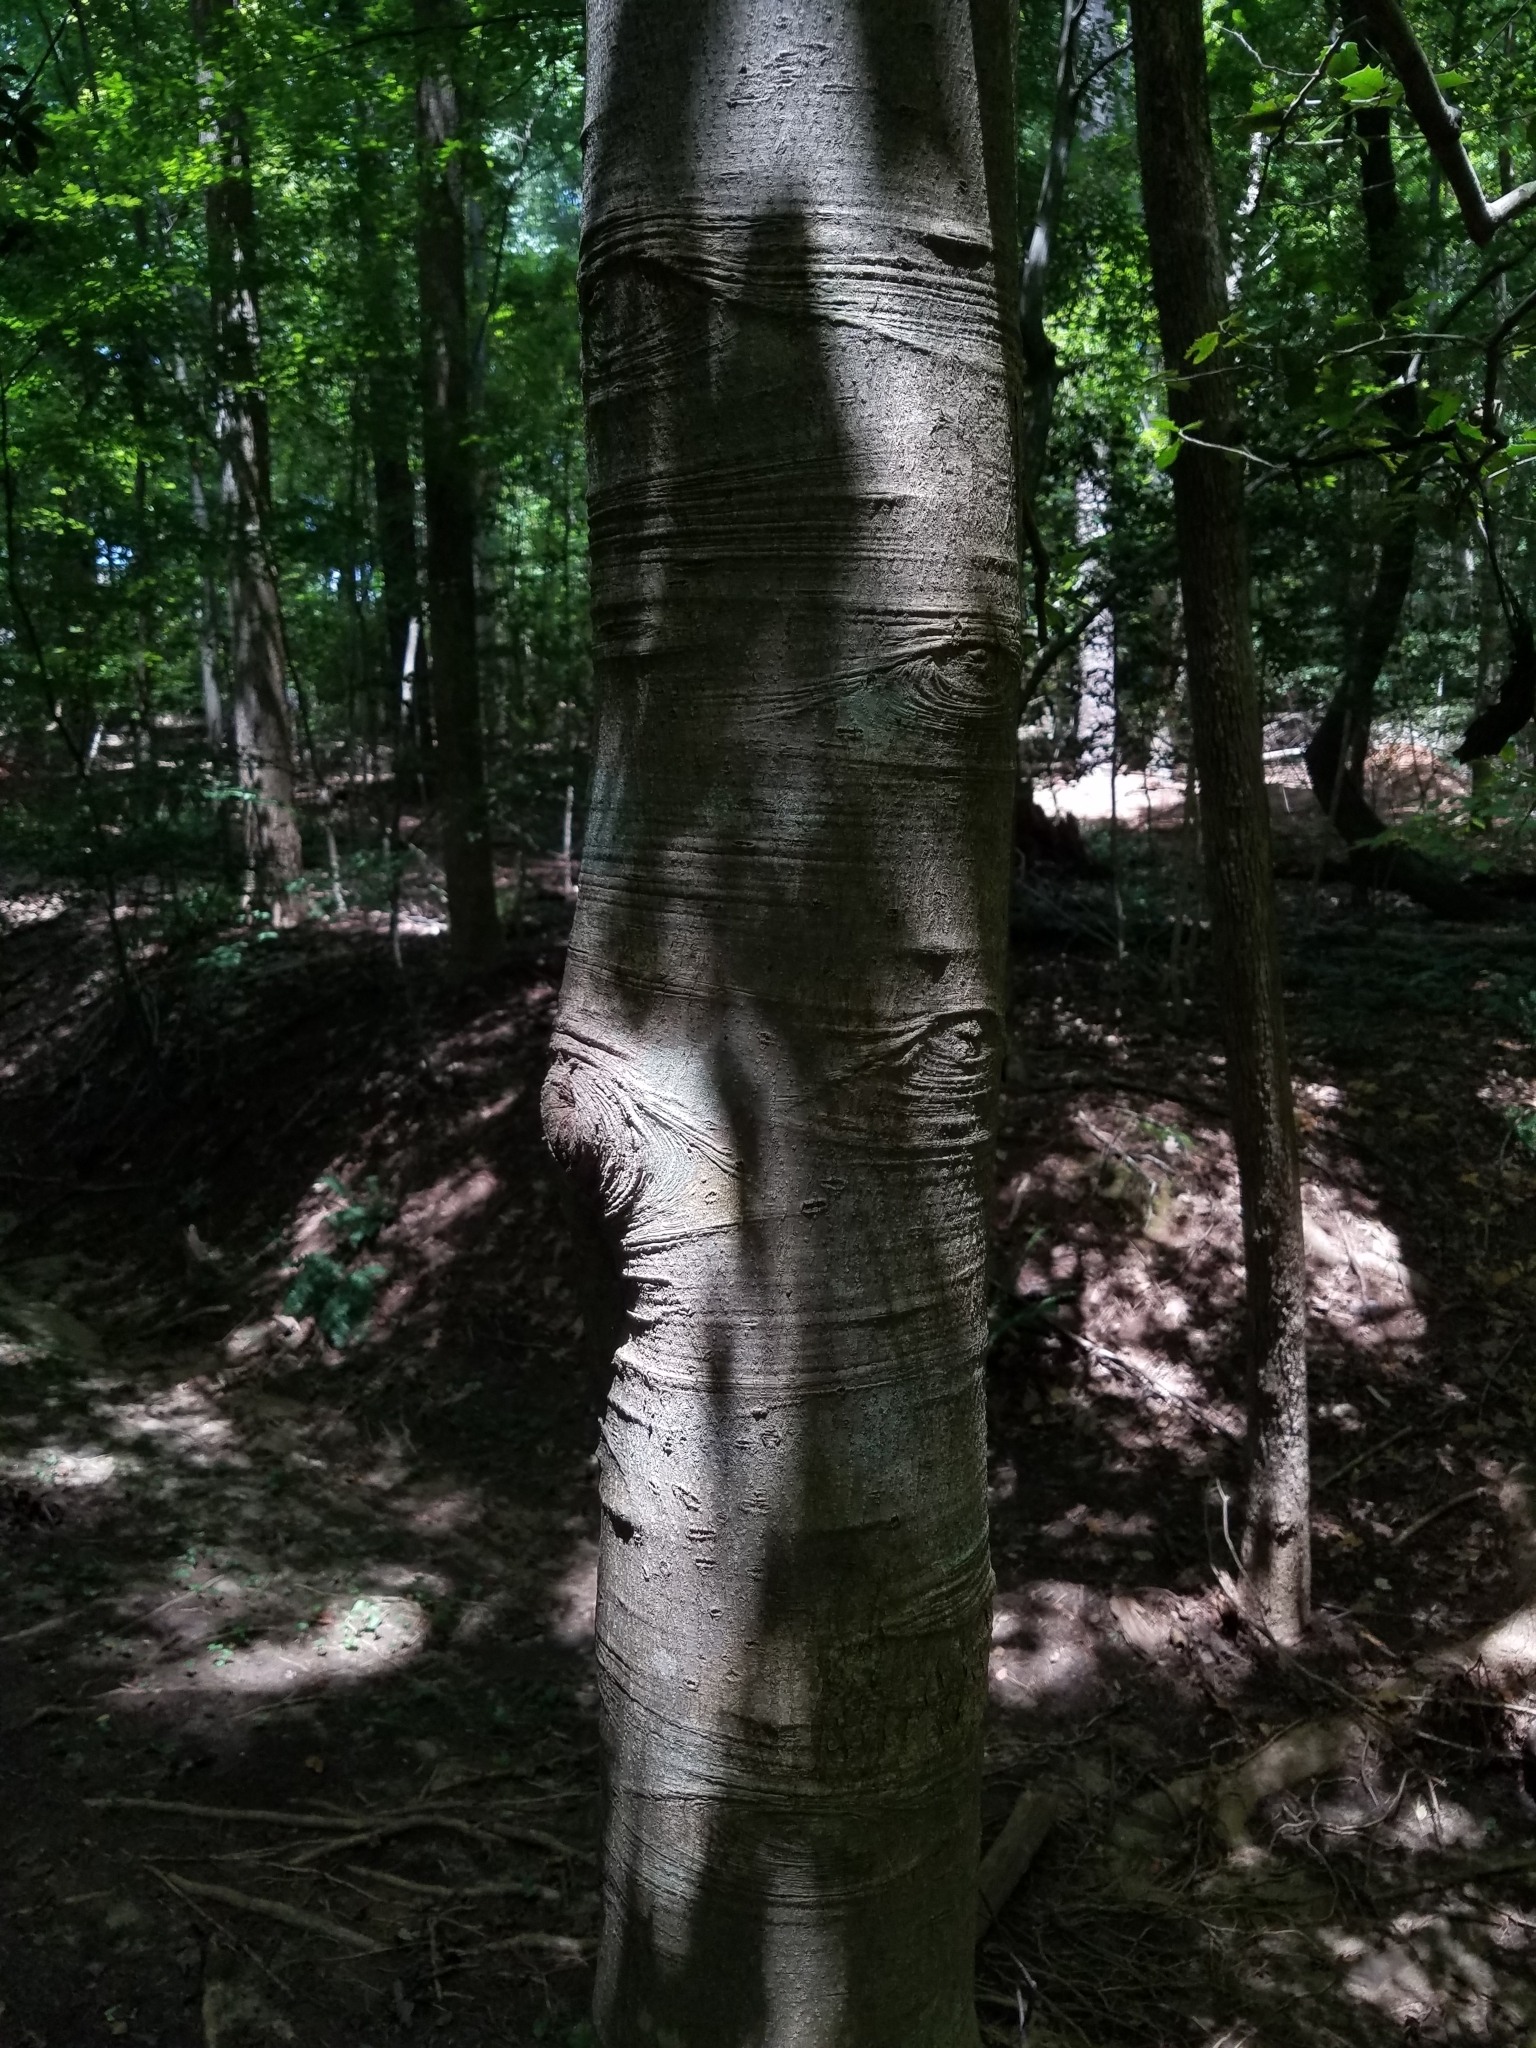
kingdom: Plantae
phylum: Tracheophyta
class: Magnoliopsida
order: Aquifoliales
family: Aquifoliaceae
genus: Ilex
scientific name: Ilex opaca
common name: American holly
